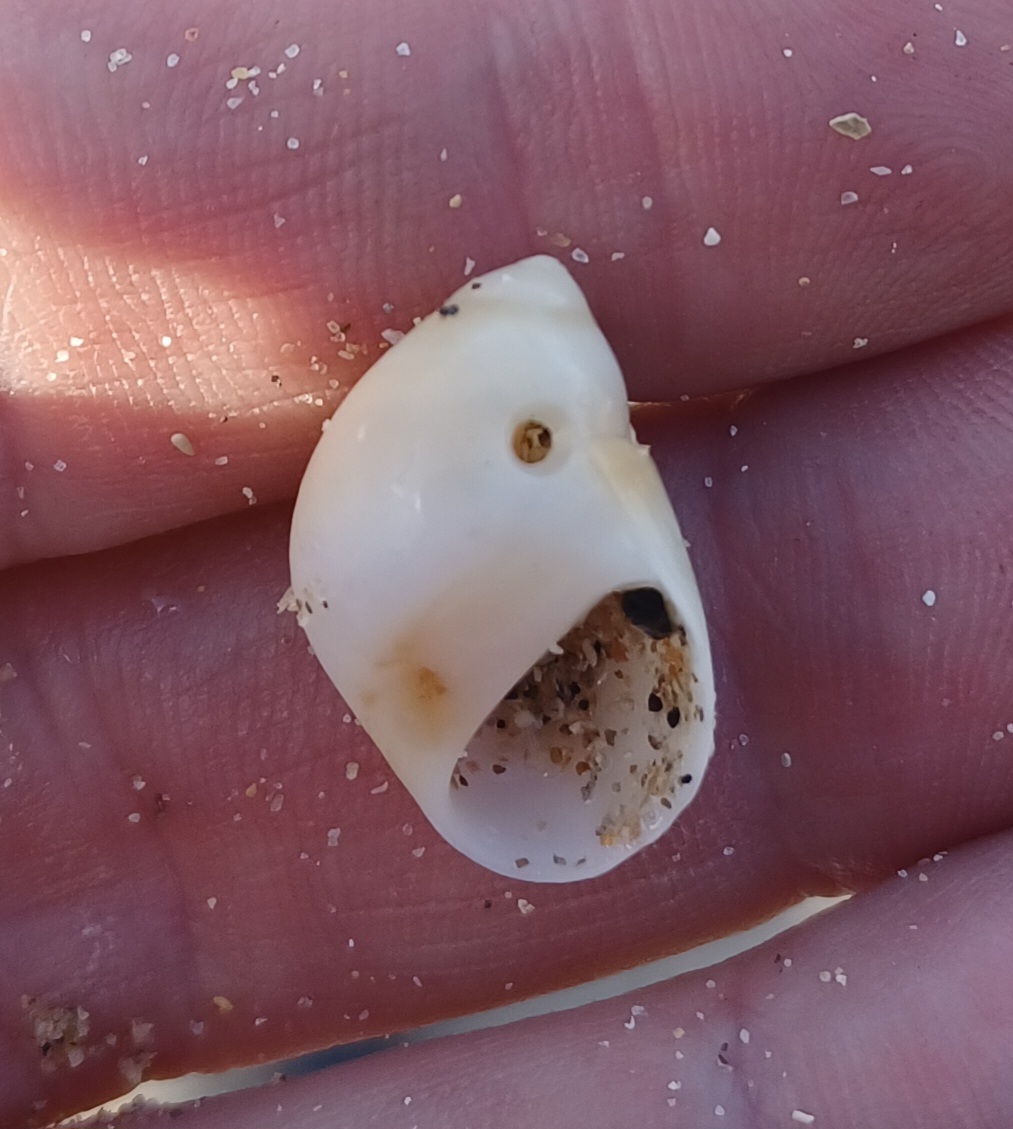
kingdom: Animalia
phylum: Mollusca
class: Gastropoda
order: Littorinimorpha
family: Naticidae
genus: Conuber
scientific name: Conuber conicum
